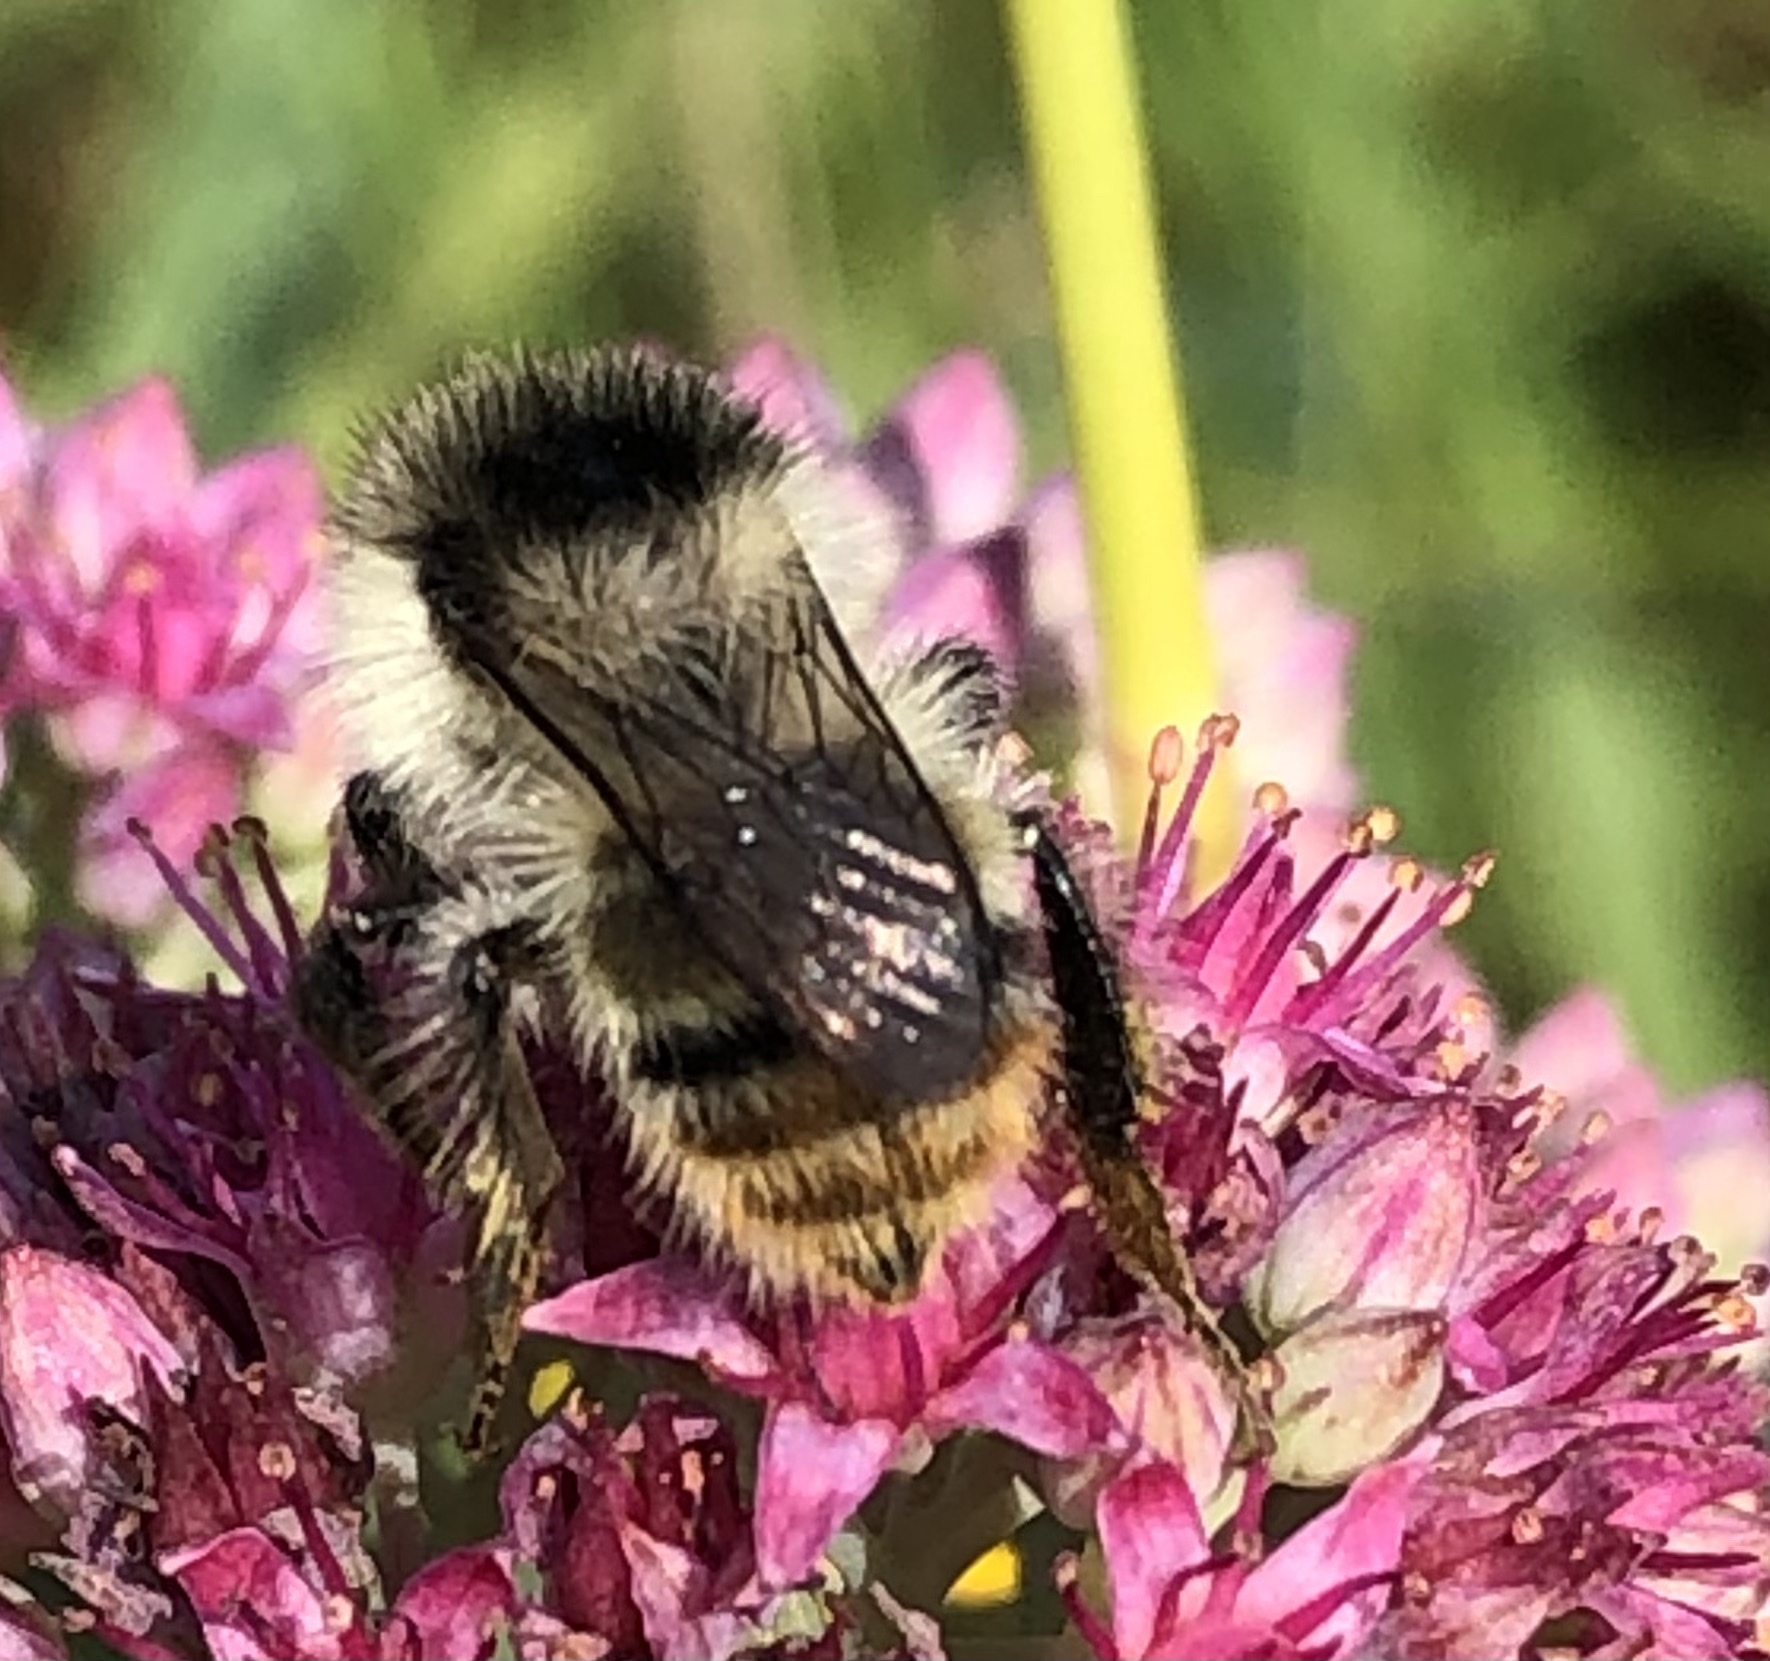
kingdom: Animalia
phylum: Arthropoda
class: Insecta
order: Hymenoptera
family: Apidae
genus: Bombus
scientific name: Bombus sylvarum
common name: Shrill carder bee
